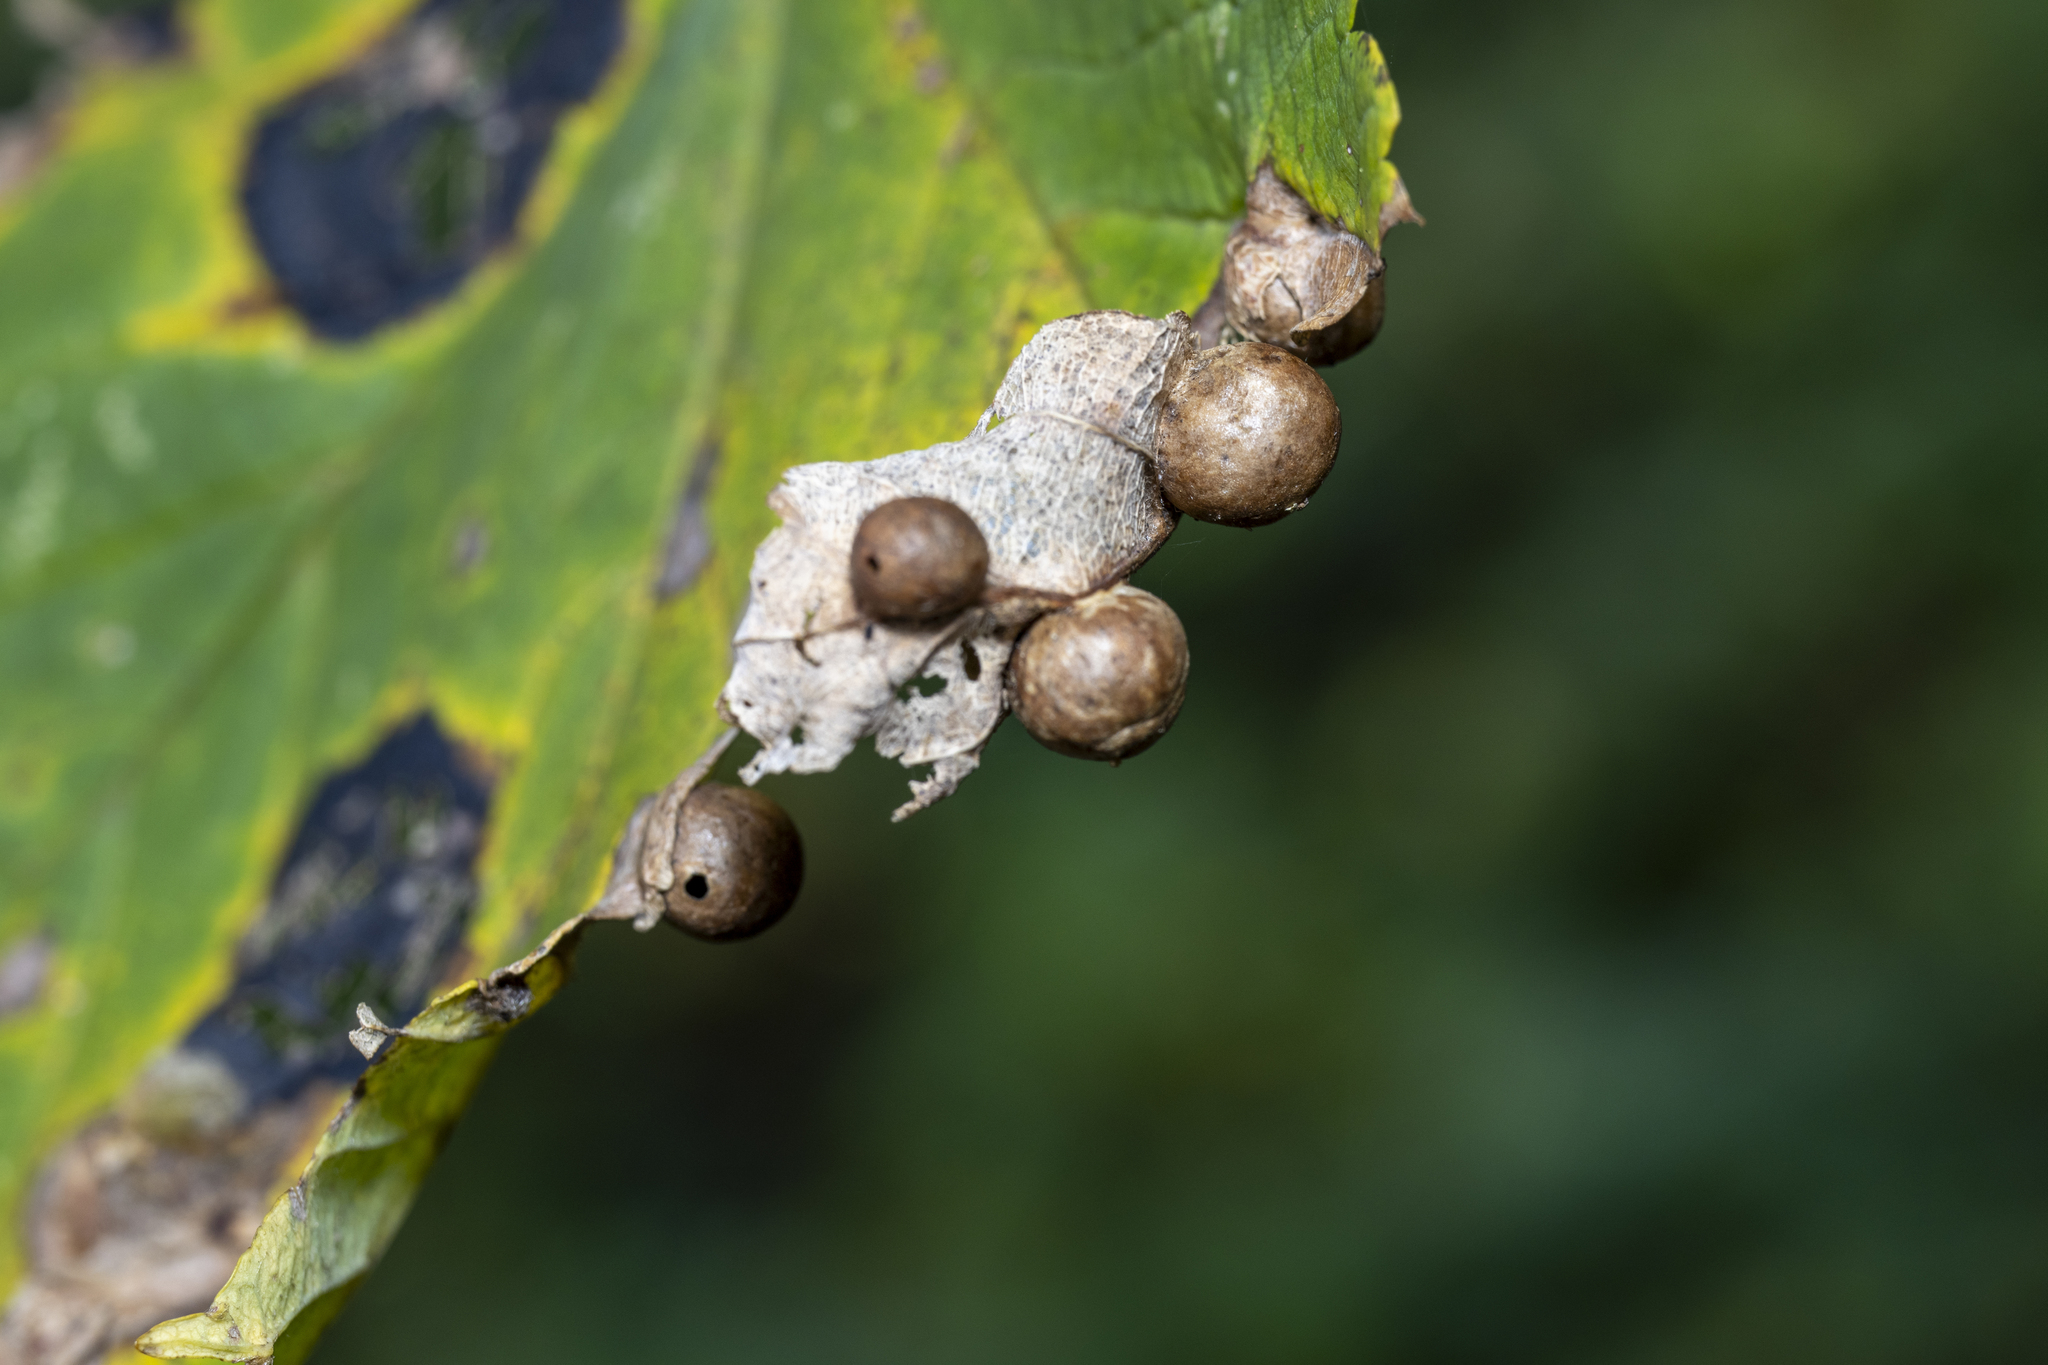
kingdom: Animalia
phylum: Arthropoda
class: Insecta
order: Hymenoptera
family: Cynipidae
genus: Pediaspis
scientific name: Pediaspis aceris
